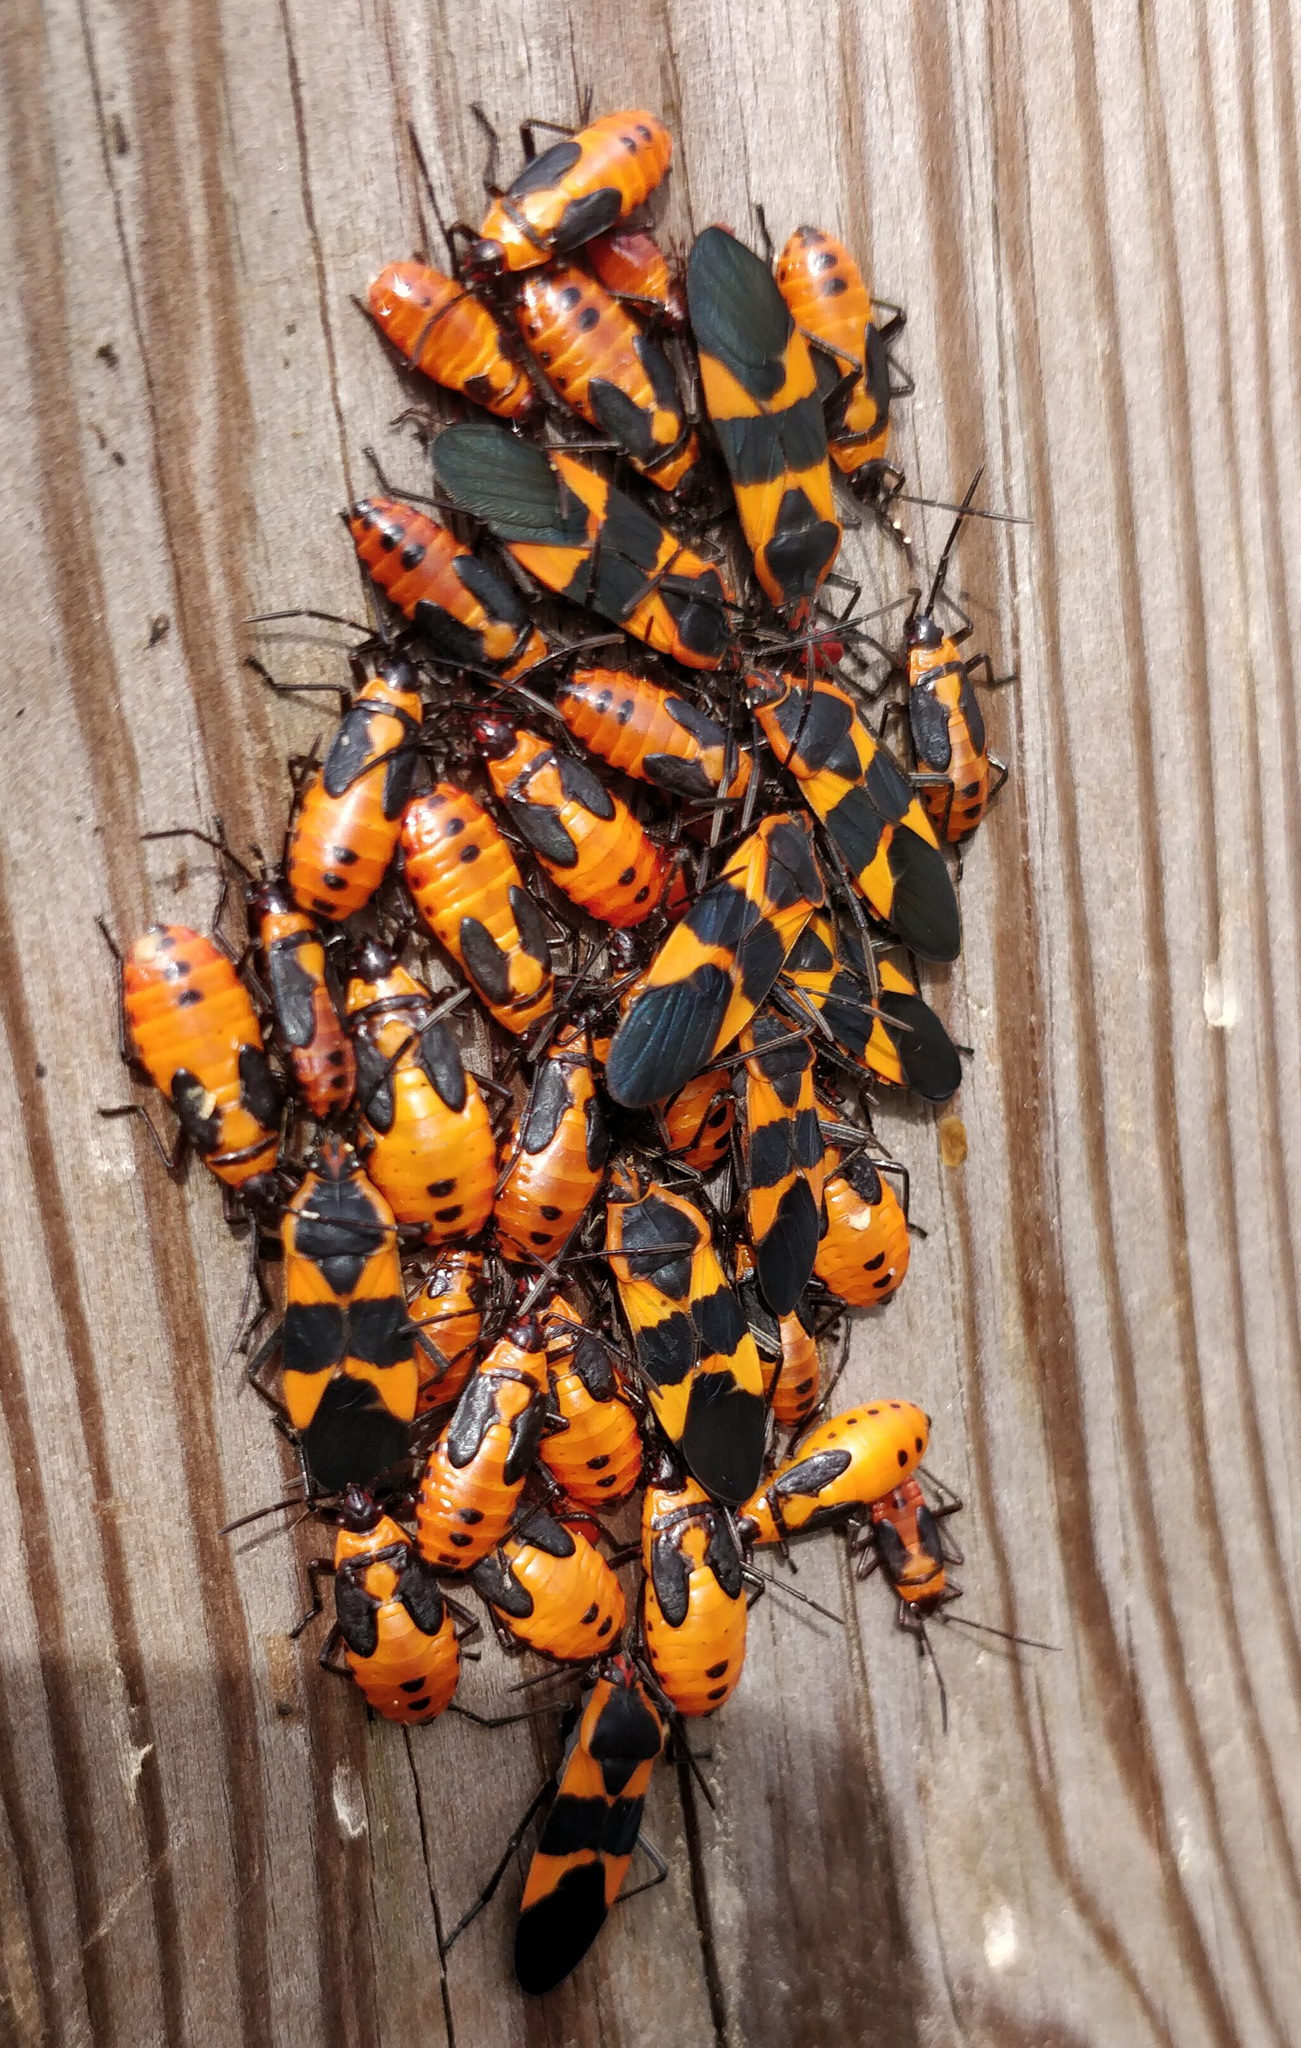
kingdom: Animalia
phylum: Arthropoda
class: Insecta
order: Hemiptera
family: Lygaeidae
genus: Oncopeltus
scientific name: Oncopeltus fasciatus
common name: Large milkweed bug
